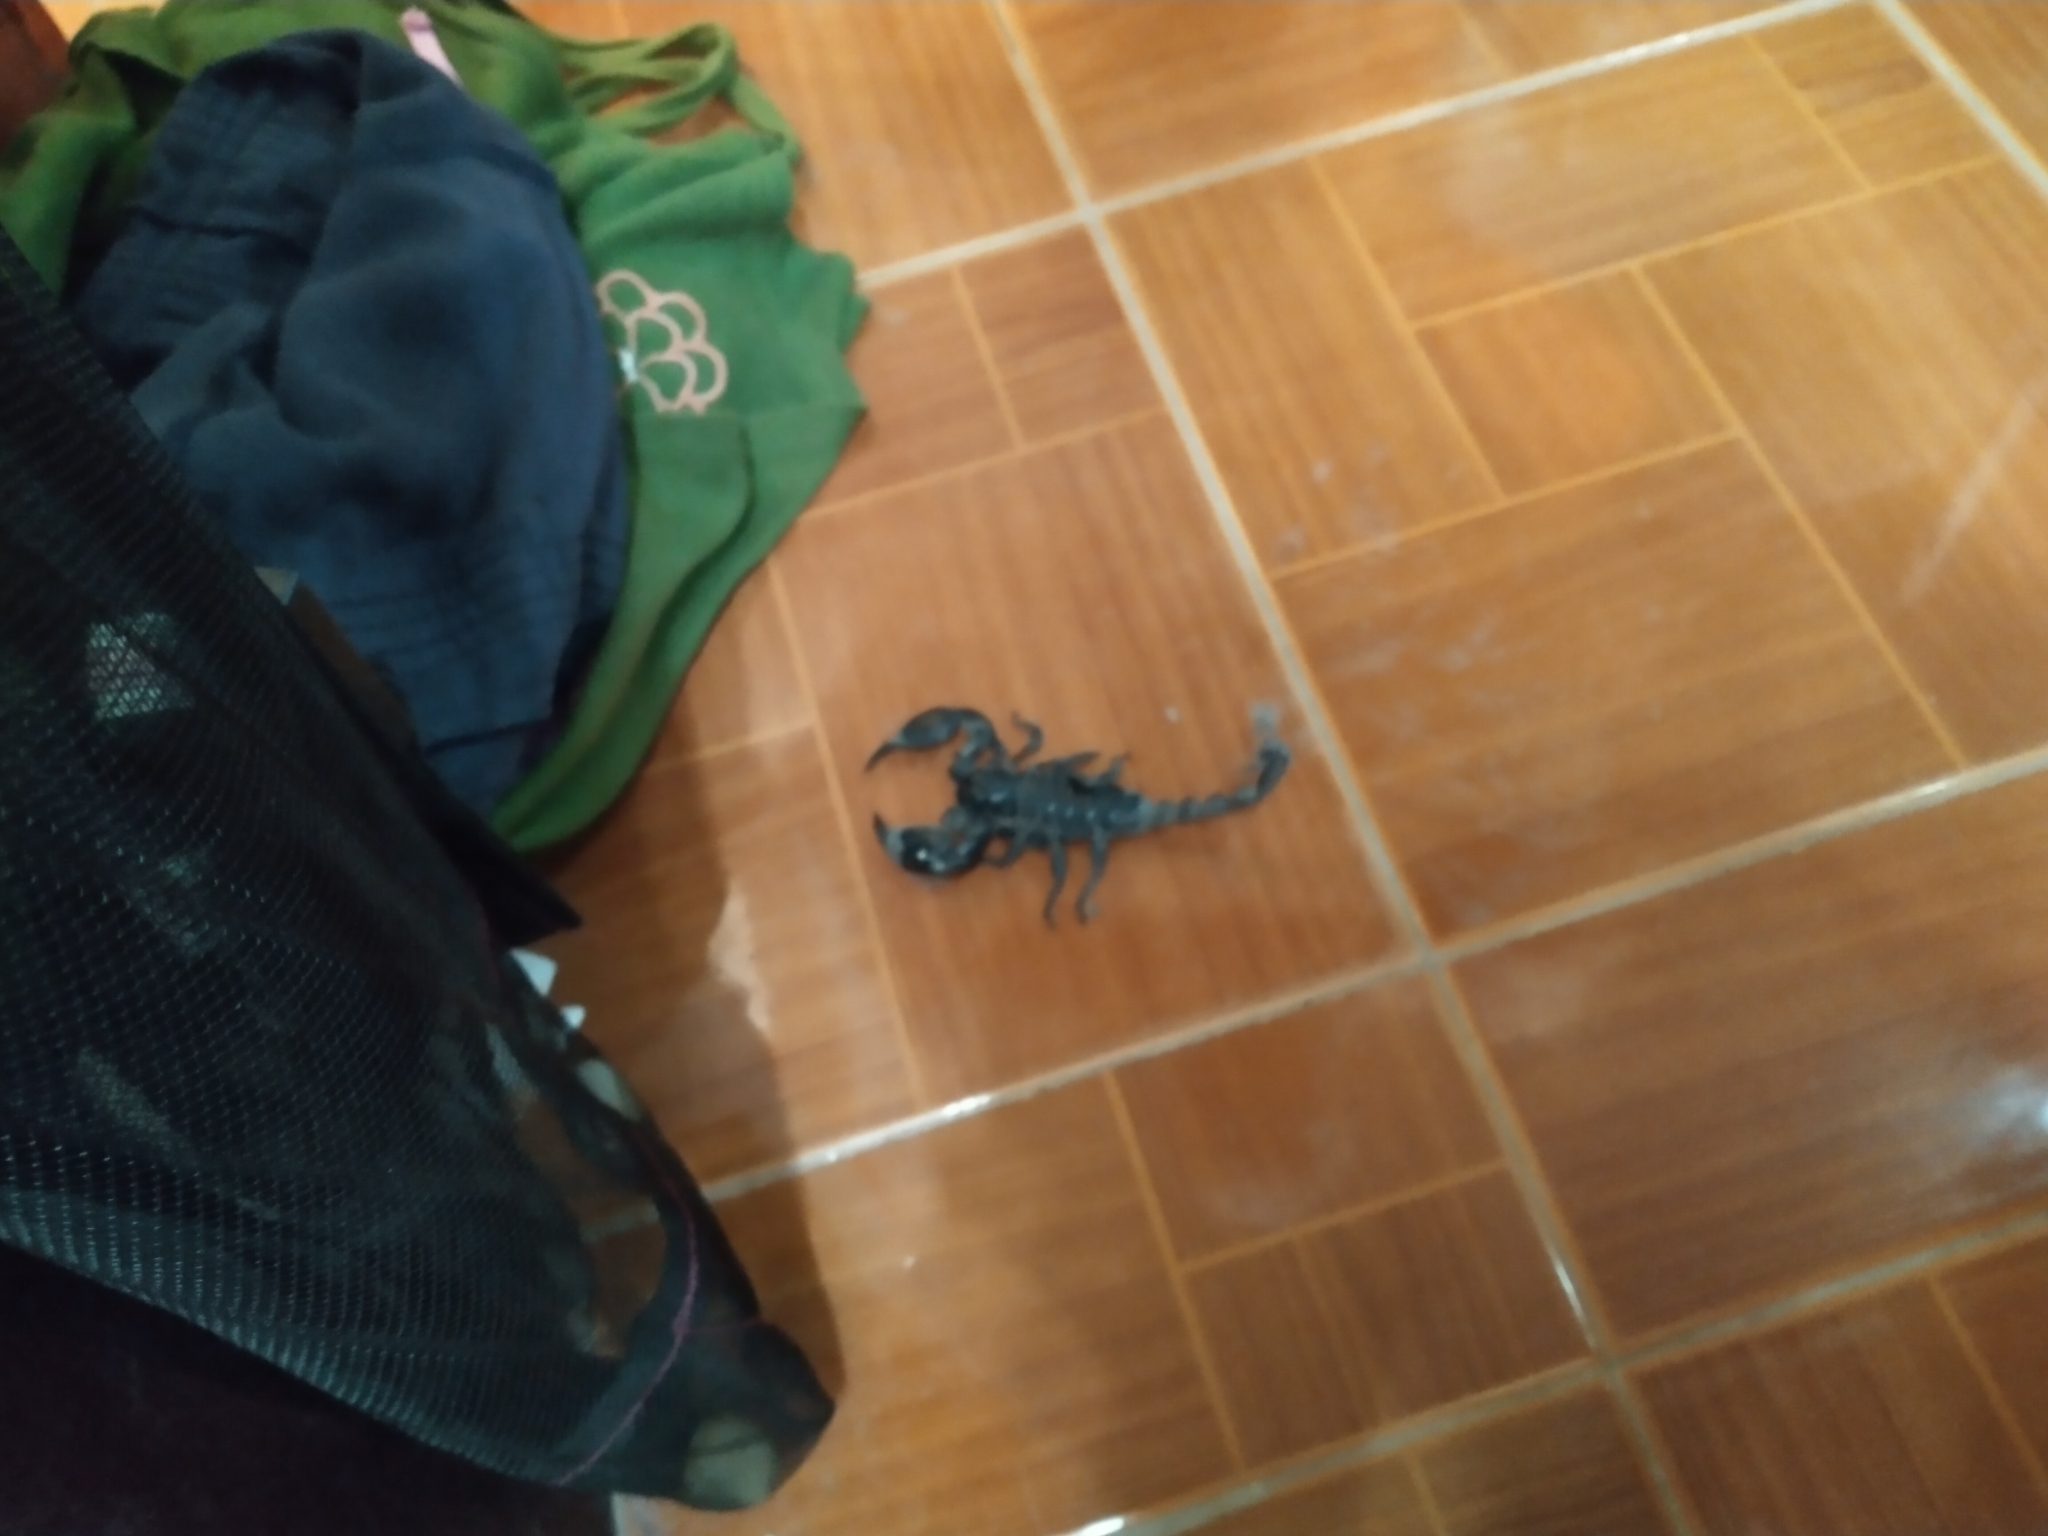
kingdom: Animalia
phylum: Arthropoda
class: Arachnida
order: Scorpiones
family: Scorpionidae
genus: Heterometrus
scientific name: Heterometrus laoticus
